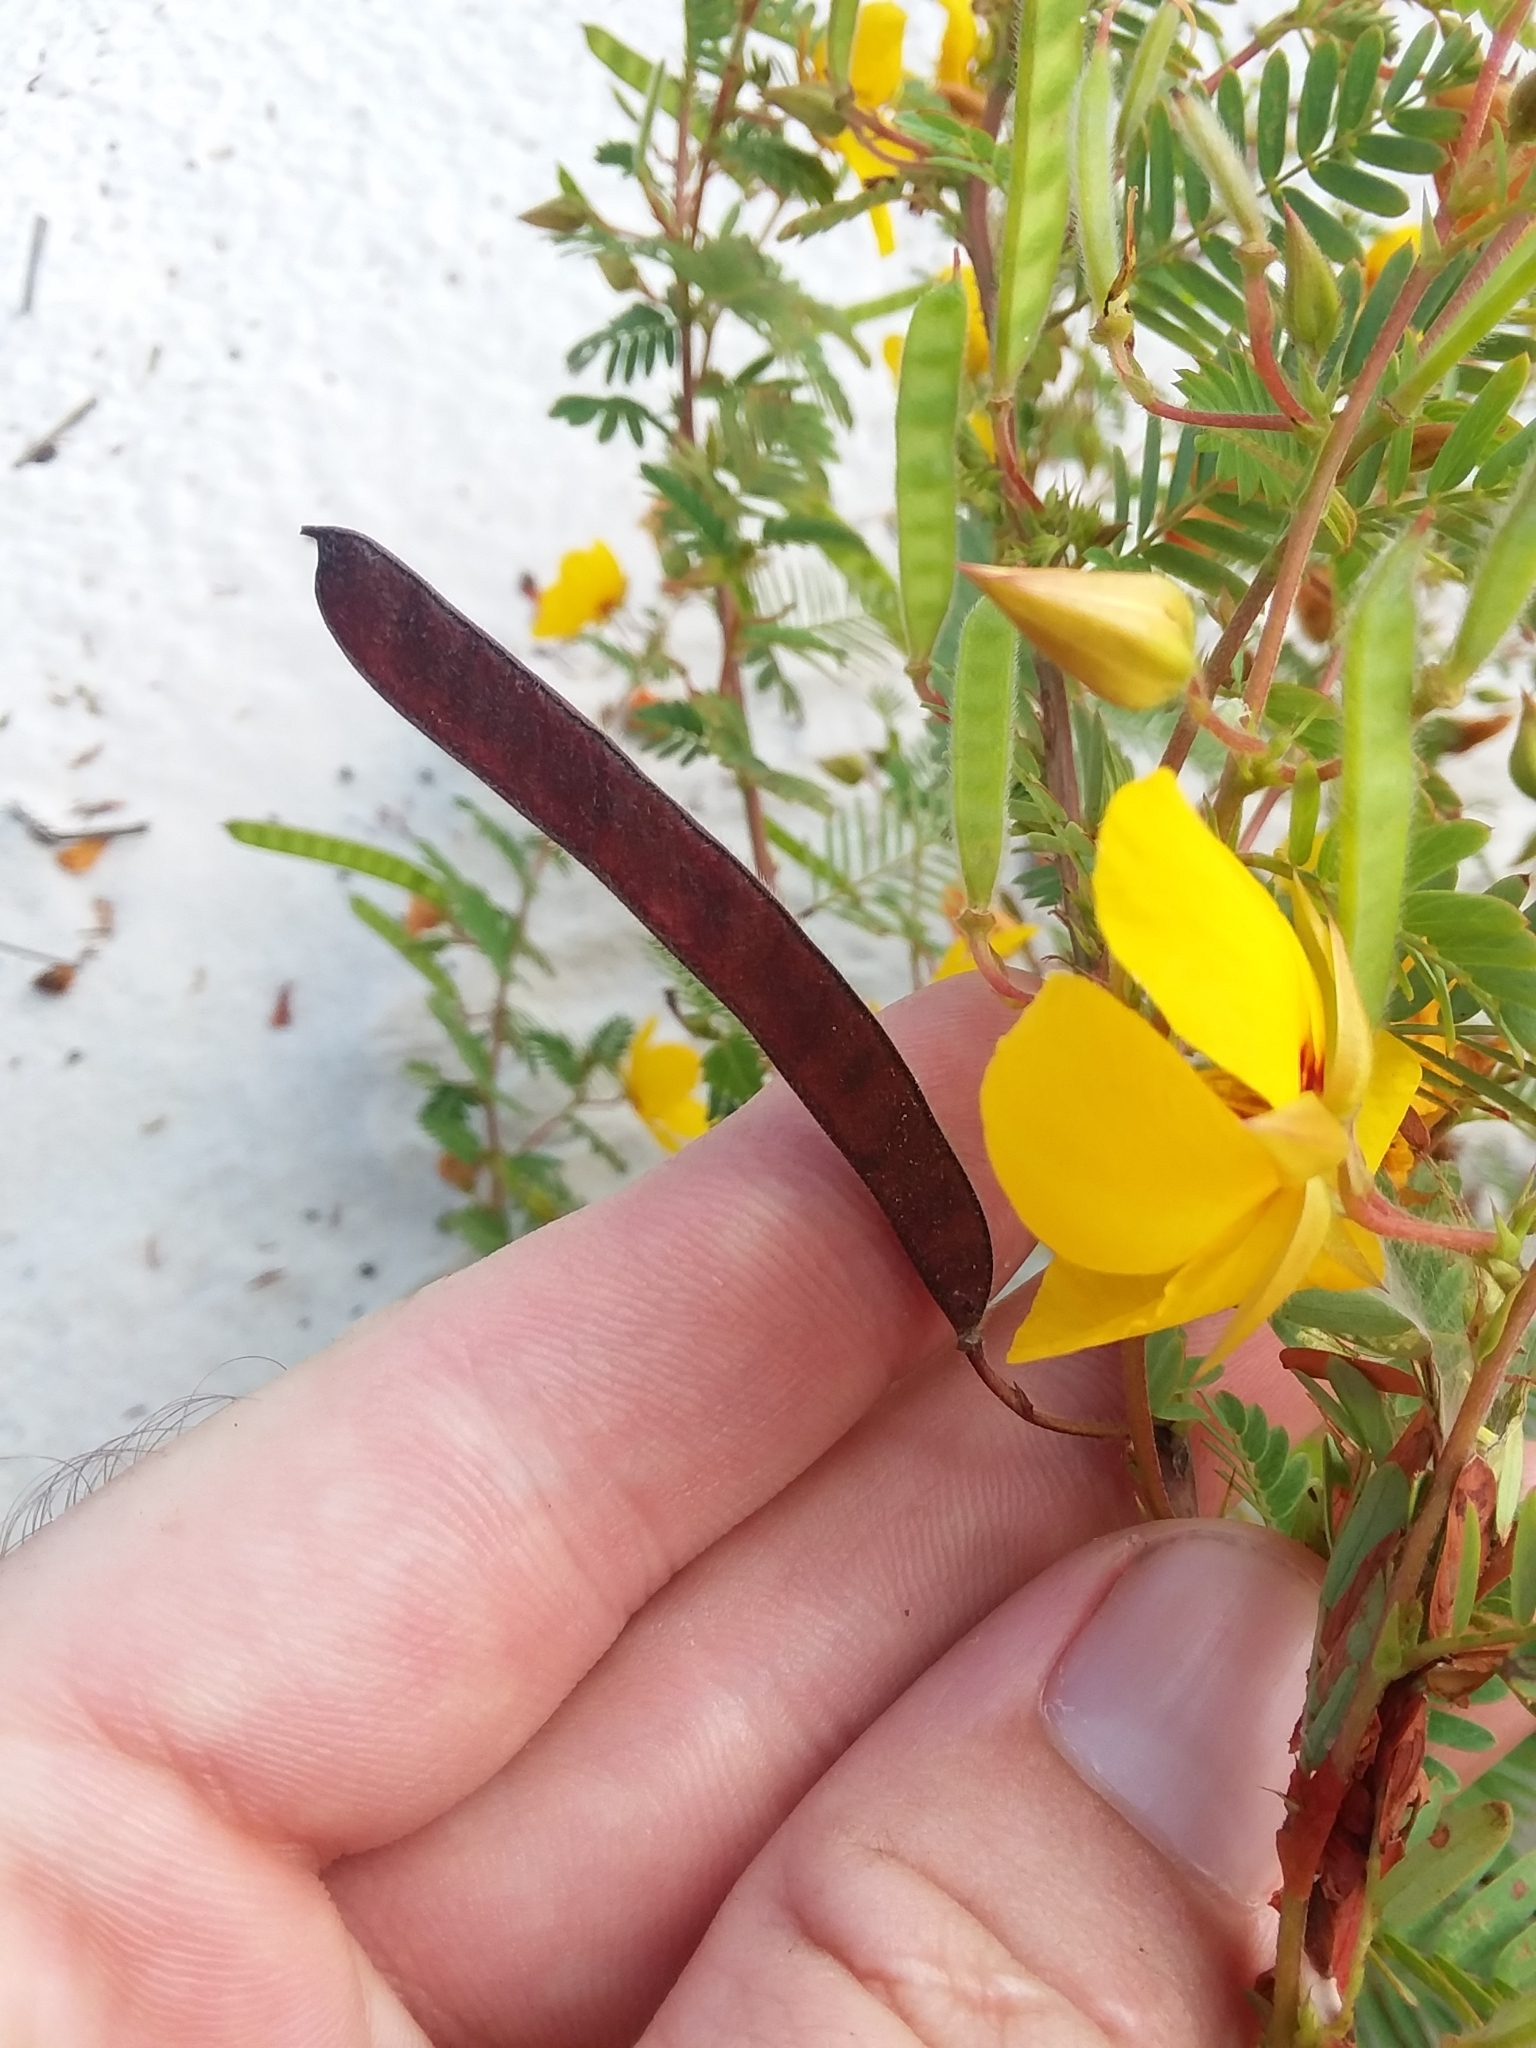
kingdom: Plantae
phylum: Tracheophyta
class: Magnoliopsida
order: Fabales
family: Fabaceae
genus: Chamaecrista
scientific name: Chamaecrista fasciculata
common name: Golden cassia
